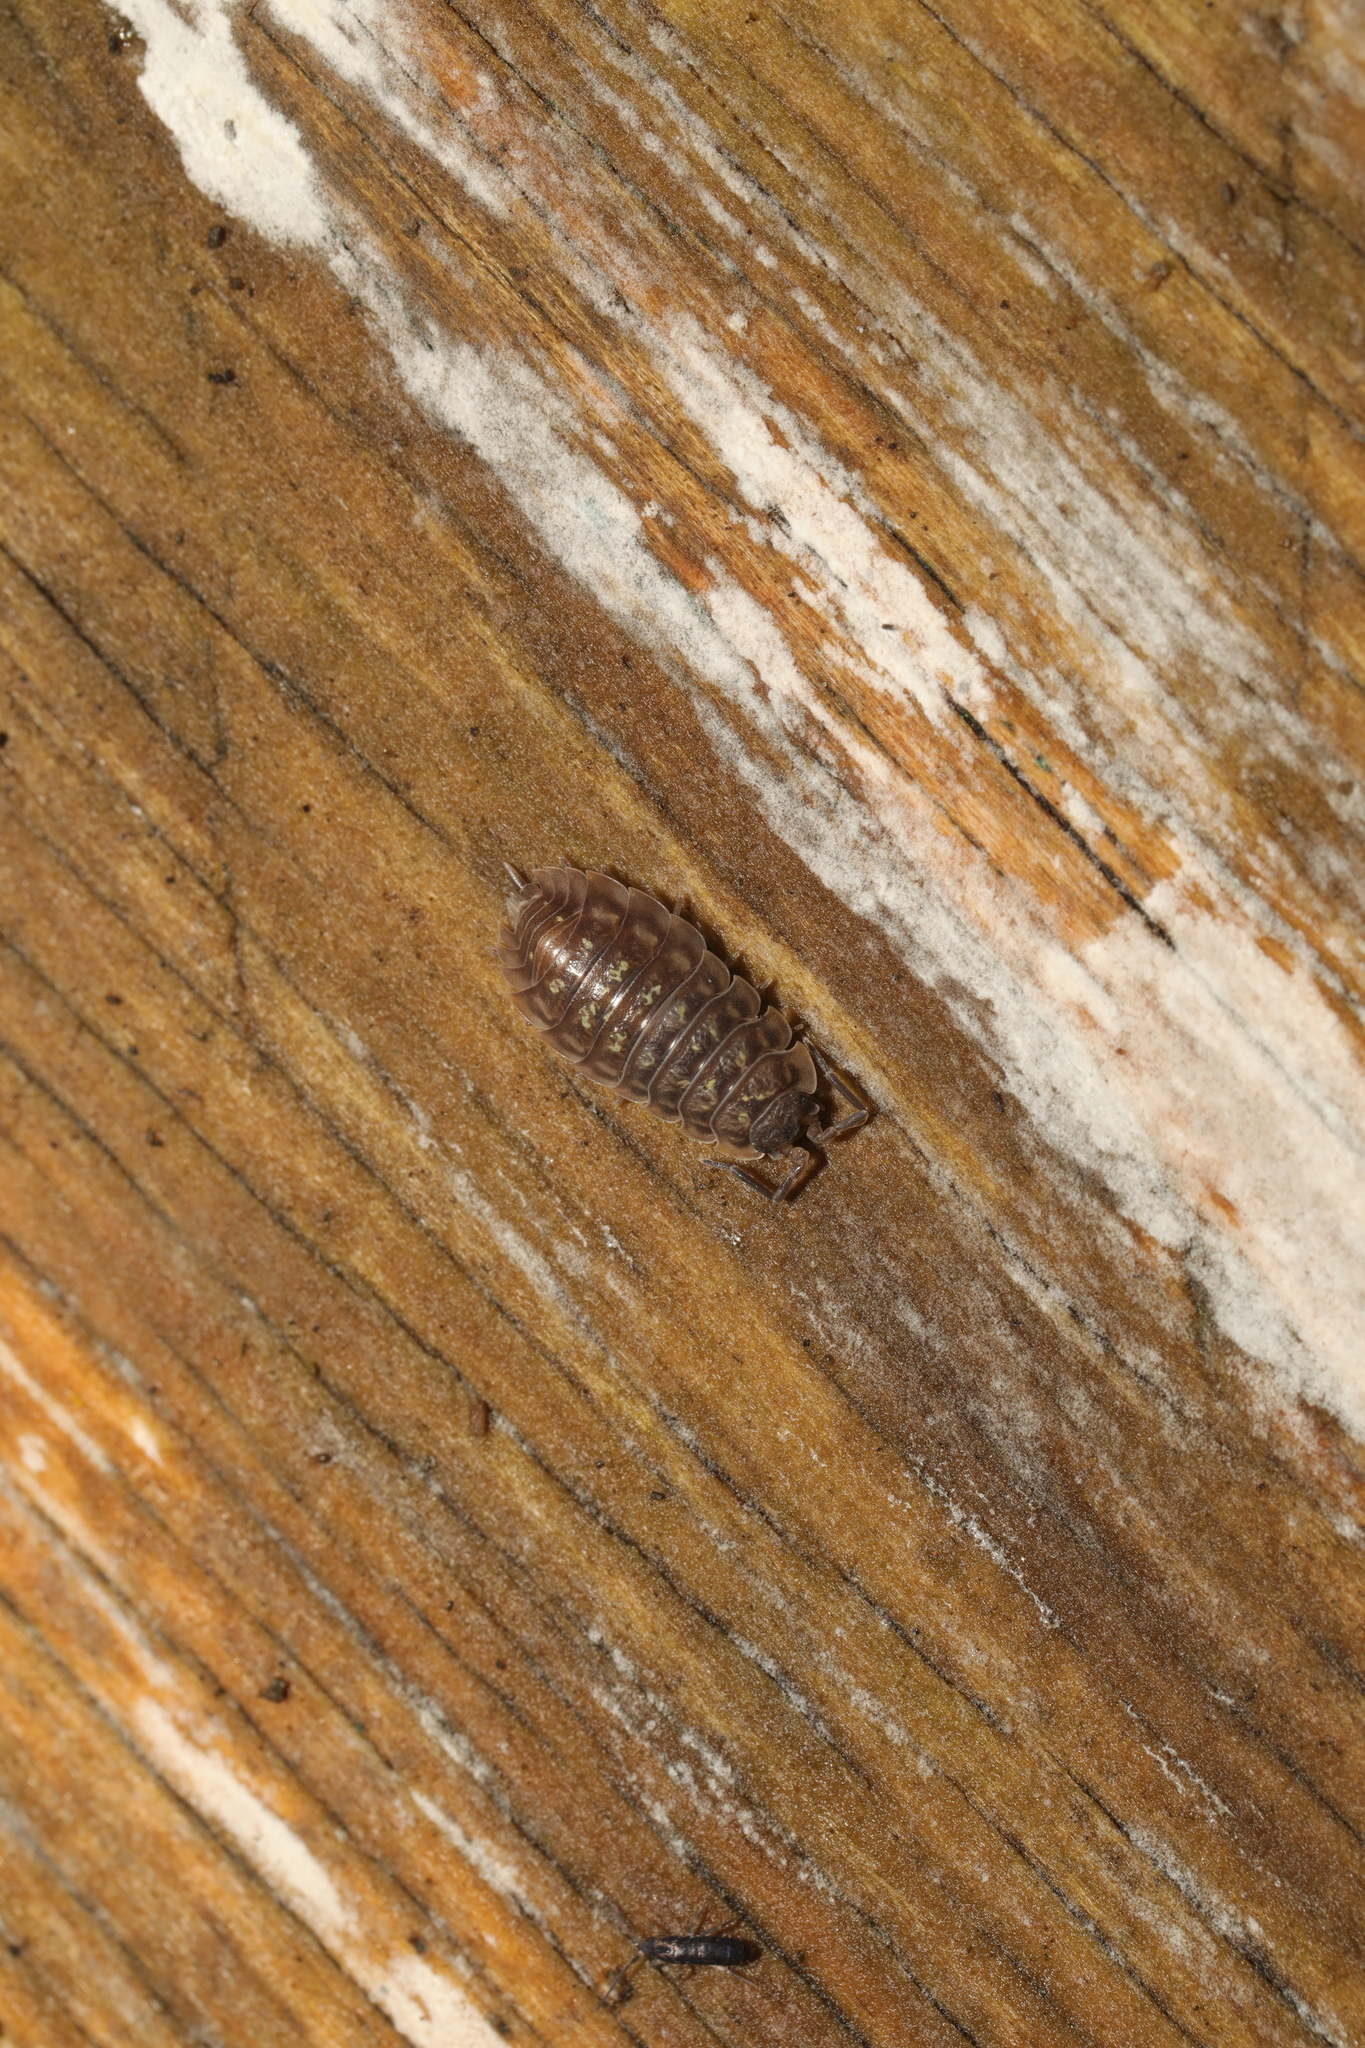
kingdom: Animalia
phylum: Arthropoda
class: Malacostraca
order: Isopoda
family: Oniscidae
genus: Oniscus
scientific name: Oniscus asellus
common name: Common shiny woodlouse
